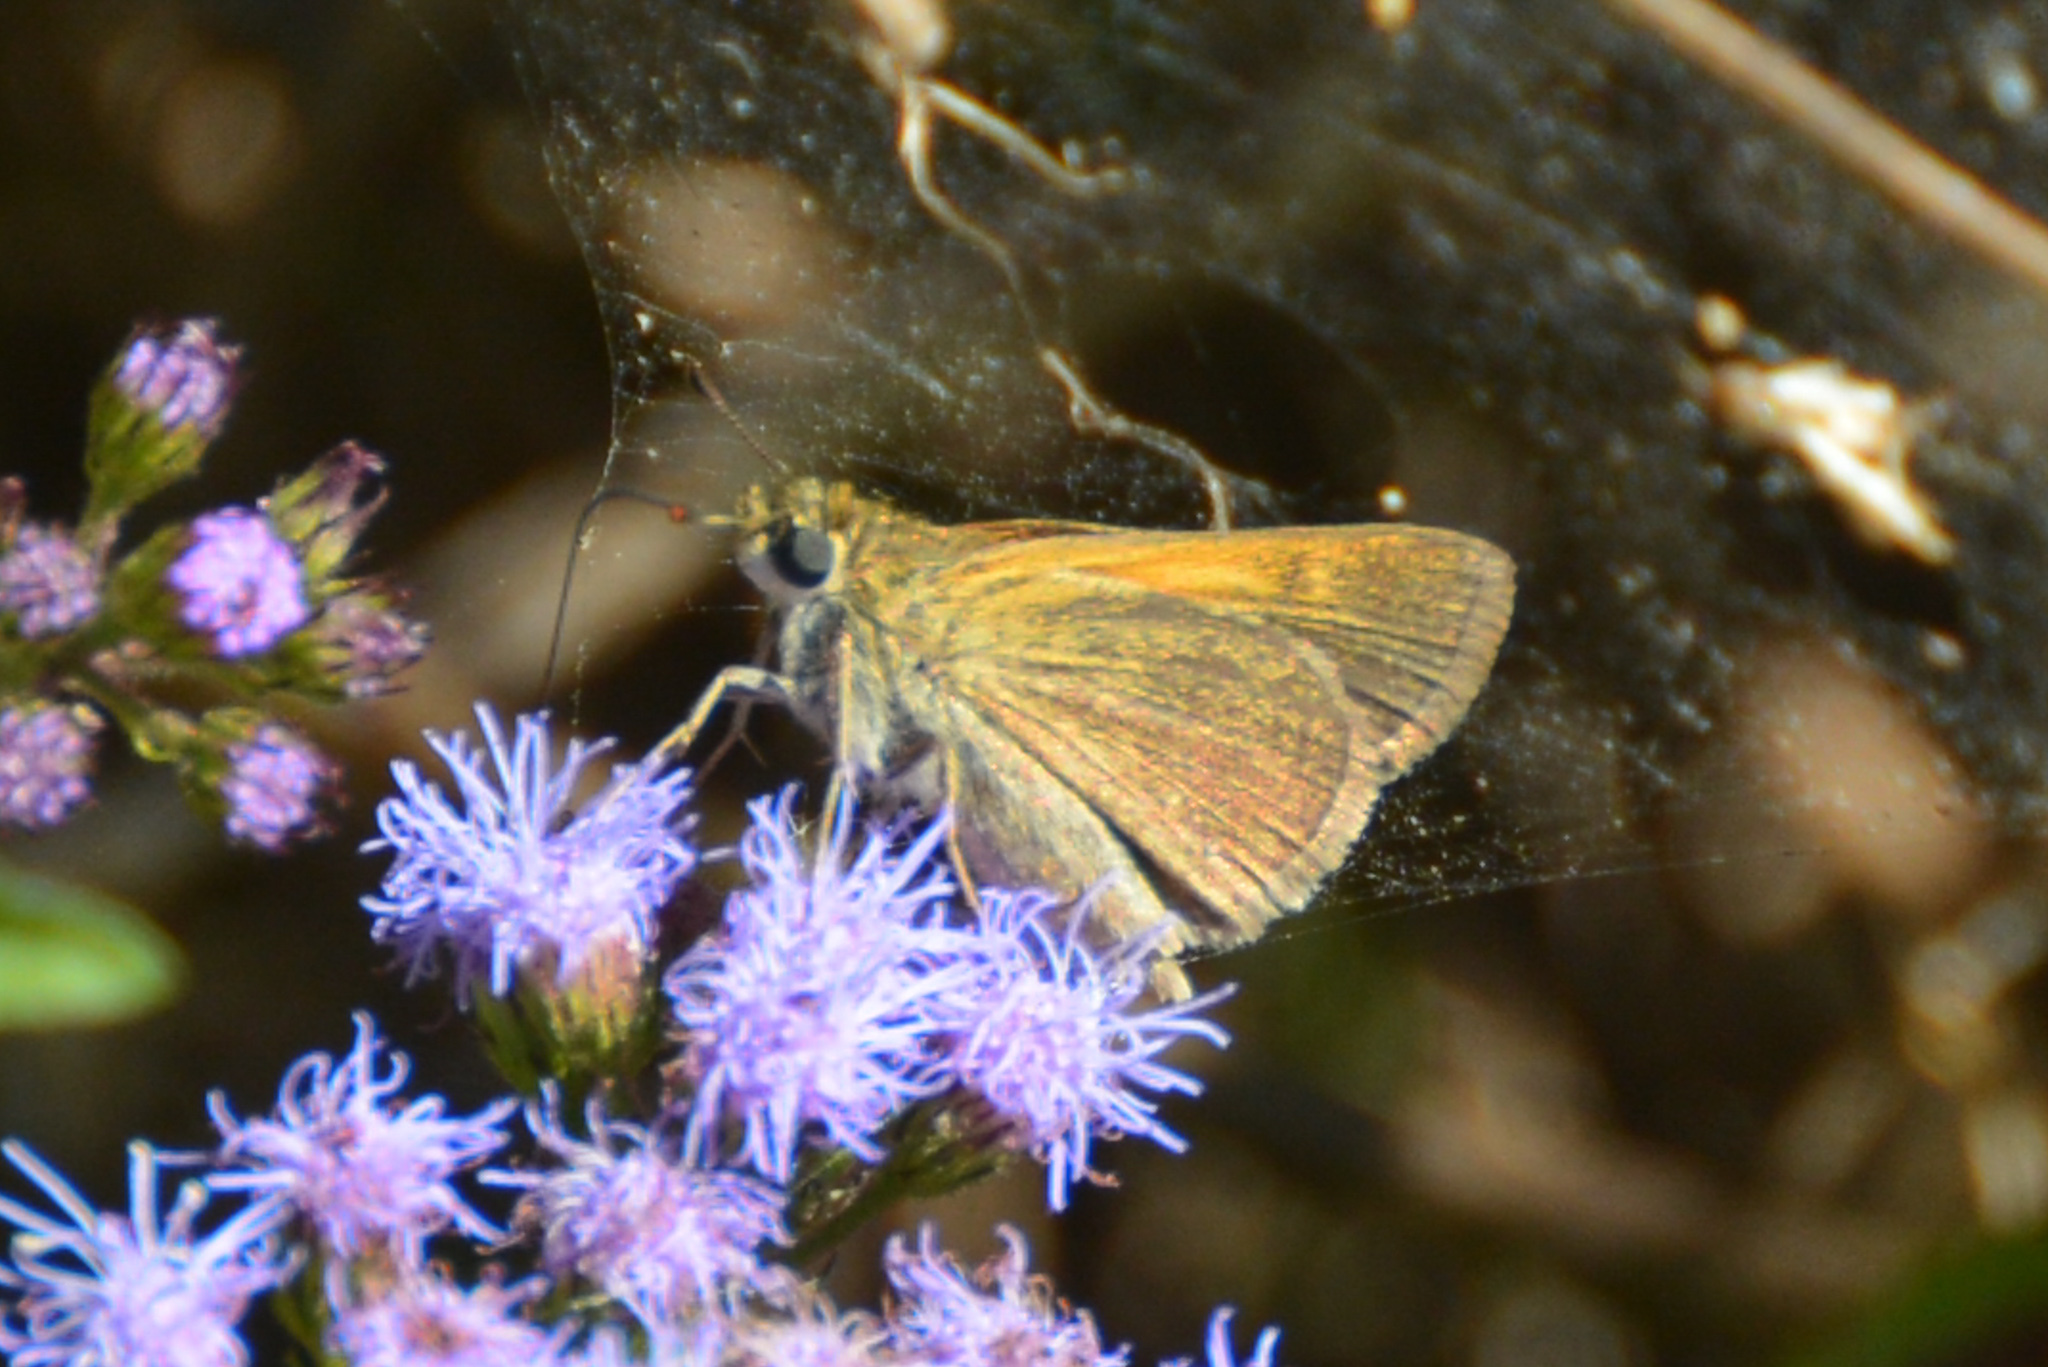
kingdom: Animalia
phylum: Arthropoda
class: Insecta
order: Lepidoptera
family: Hesperiidae
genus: Polites
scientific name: Polites themistocles
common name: Tawny-edged skipper
